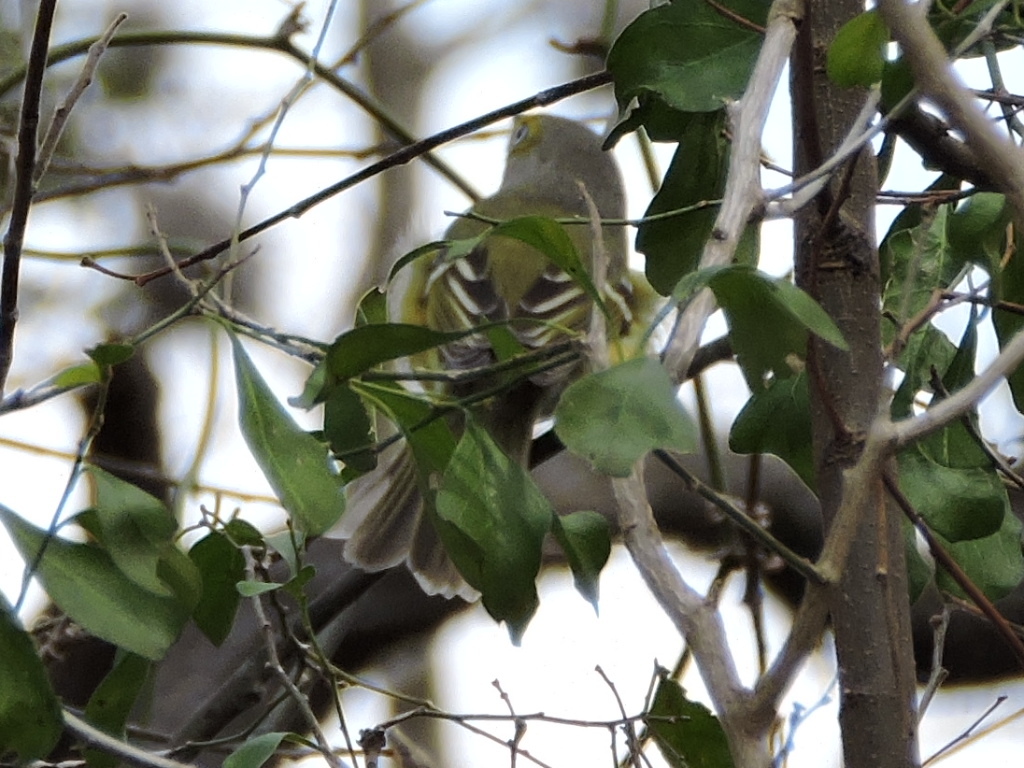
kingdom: Animalia
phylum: Chordata
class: Aves
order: Passeriformes
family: Vireonidae
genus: Vireo
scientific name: Vireo griseus
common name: White-eyed vireo
